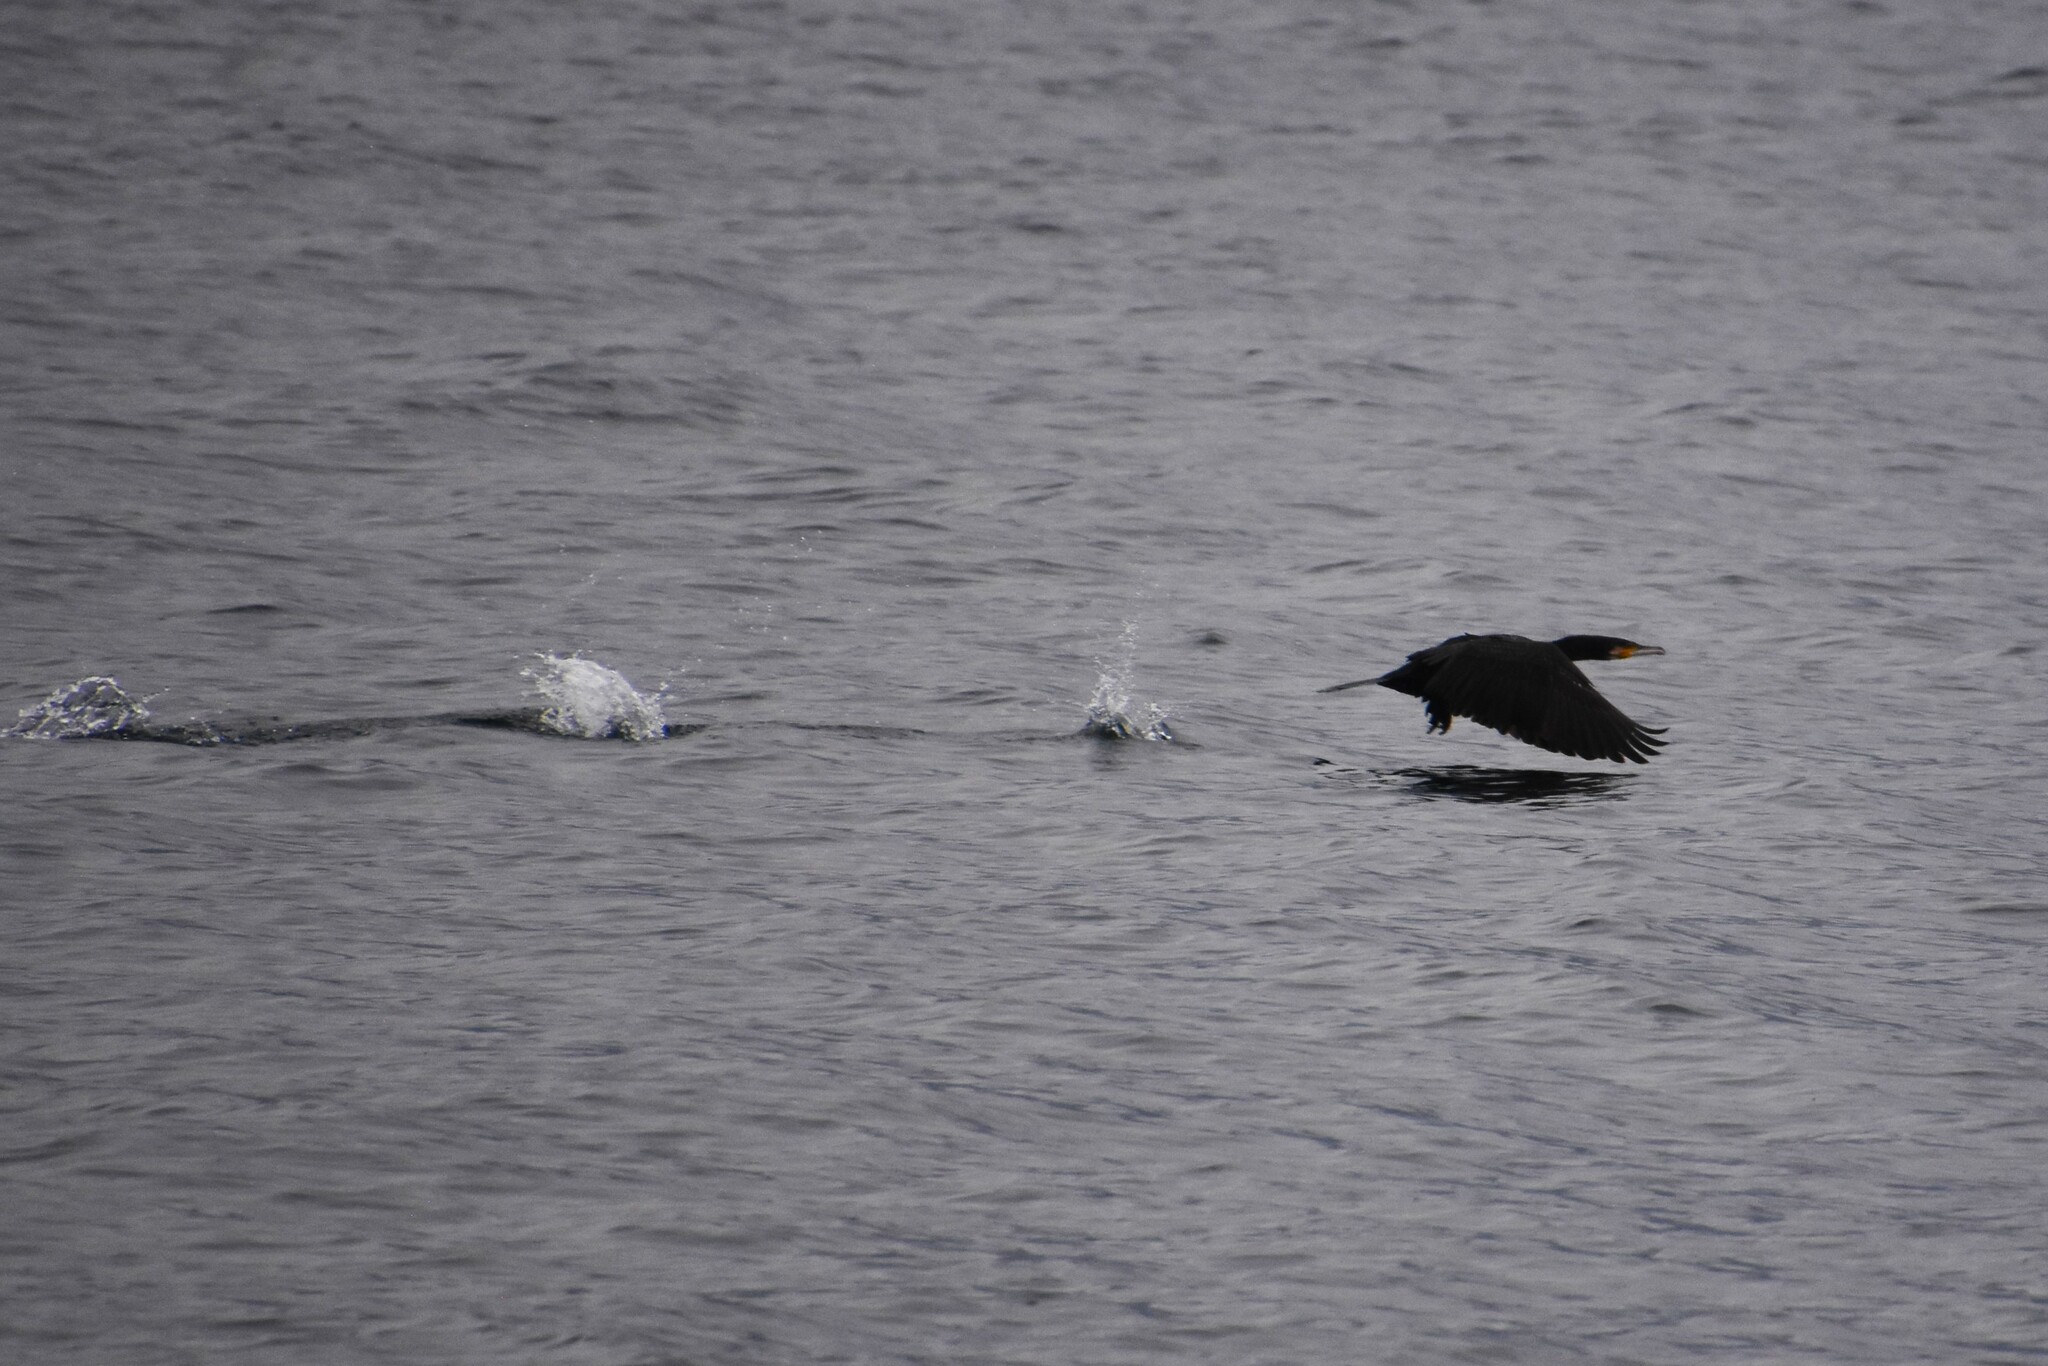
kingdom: Animalia
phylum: Chordata
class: Aves
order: Suliformes
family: Phalacrocoracidae
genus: Phalacrocorax
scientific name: Phalacrocorax carbo
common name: Great cormorant
